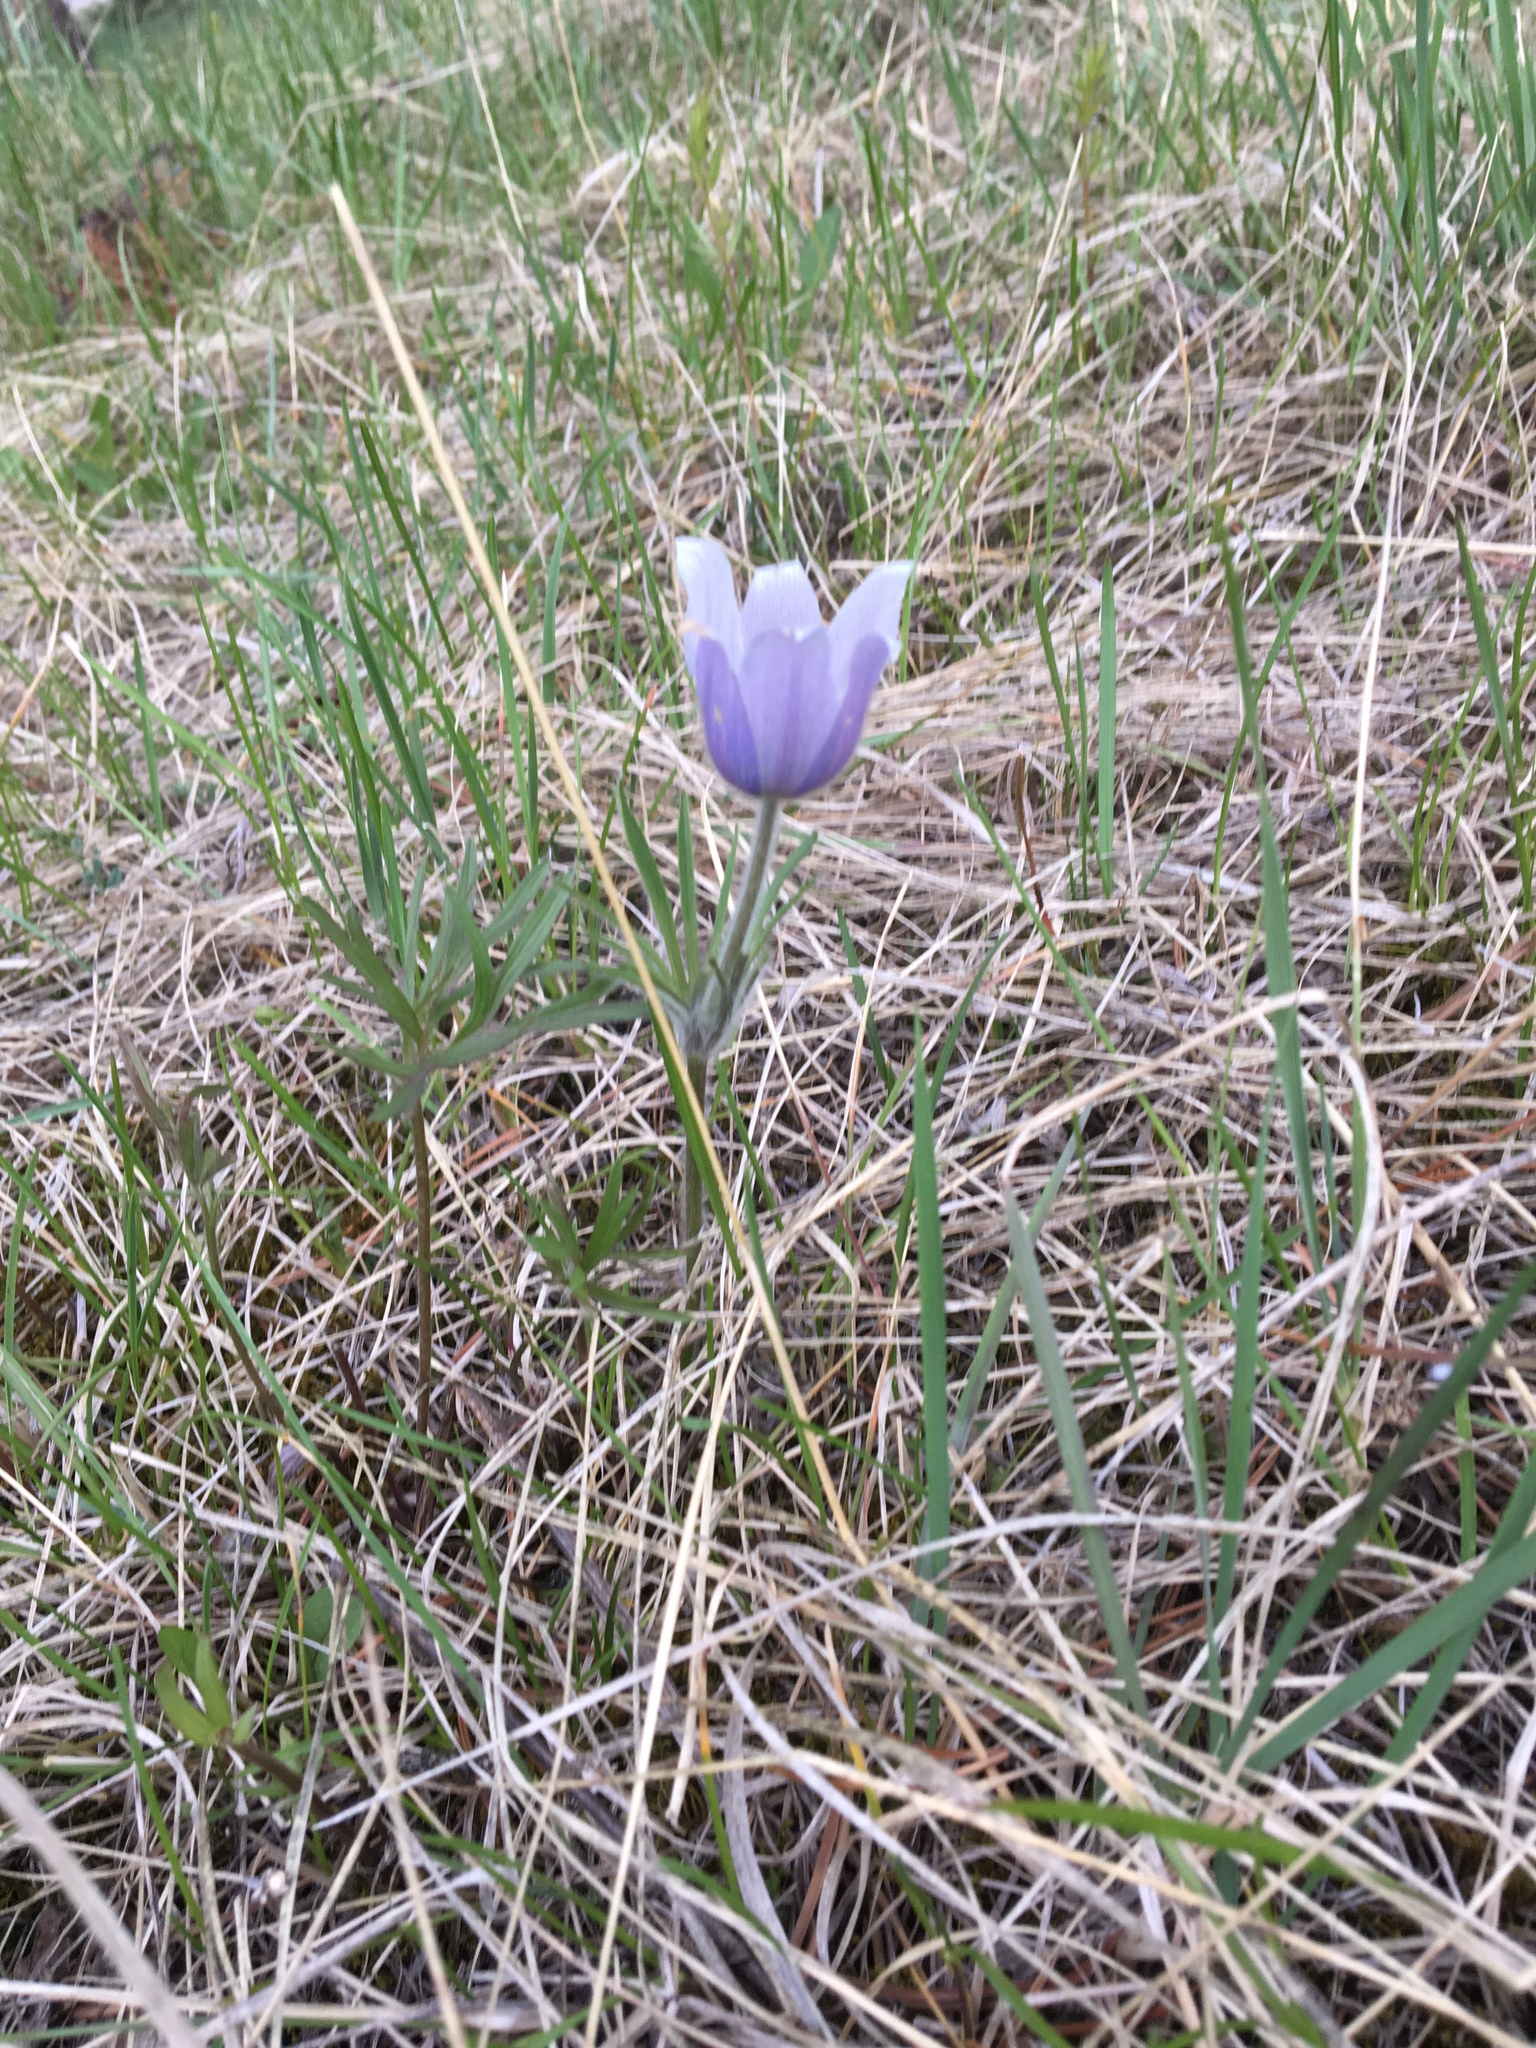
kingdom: Plantae
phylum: Tracheophyta
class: Magnoliopsida
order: Ranunculales
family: Ranunculaceae
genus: Pulsatilla
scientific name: Pulsatilla nuttalliana
